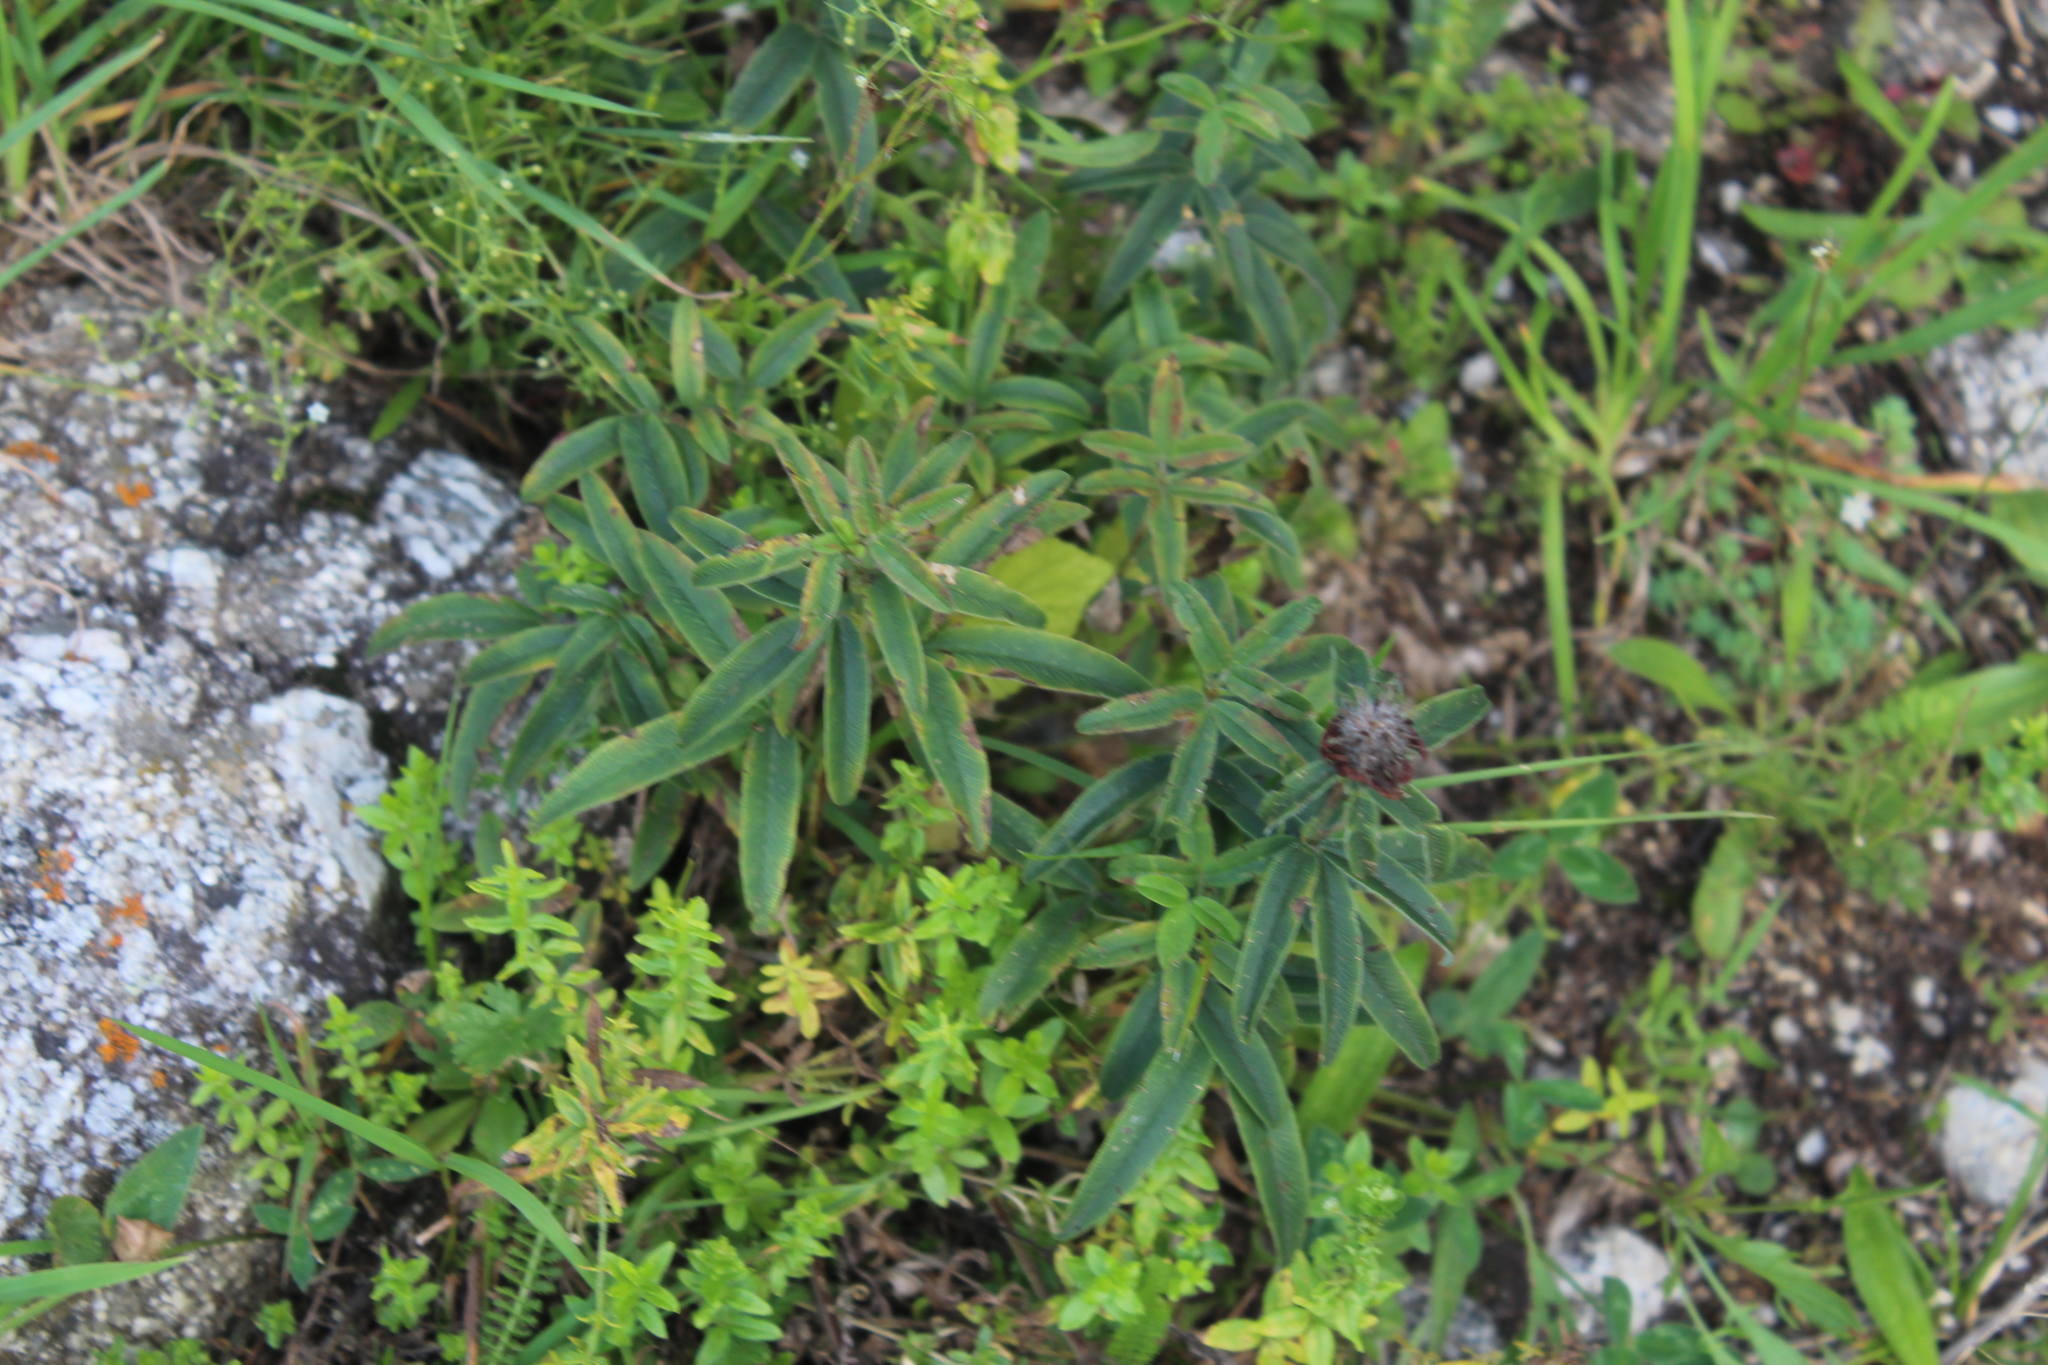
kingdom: Plantae
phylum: Tracheophyta
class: Magnoliopsida
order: Fabales
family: Fabaceae
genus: Trifolium
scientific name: Trifolium alpestre
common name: Owl-head clover
